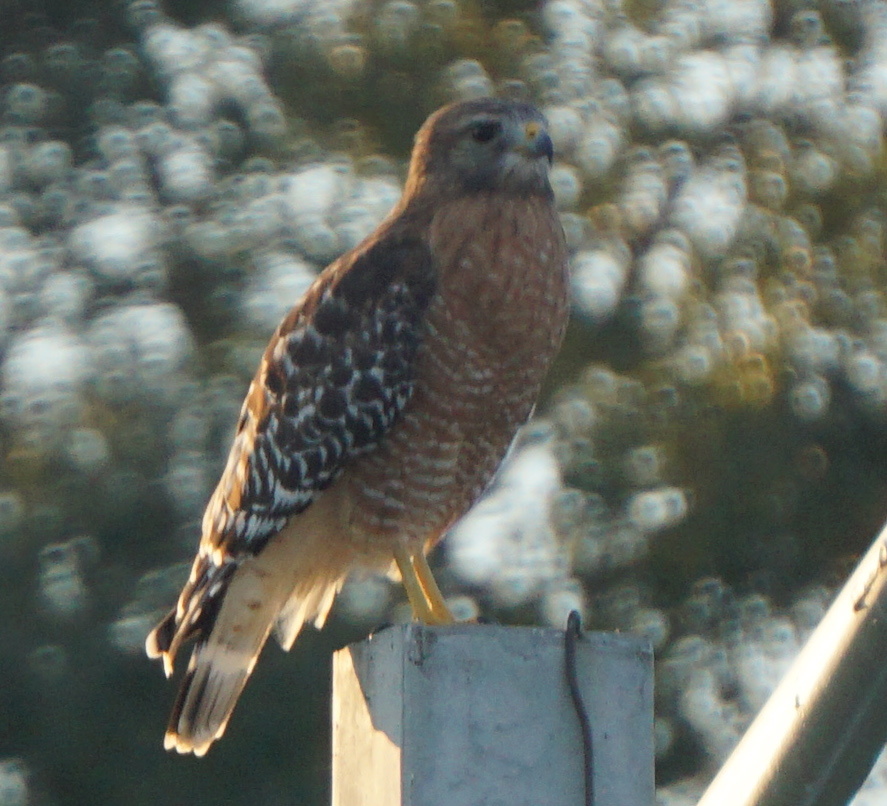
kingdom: Animalia
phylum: Chordata
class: Aves
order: Accipitriformes
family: Accipitridae
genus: Buteo
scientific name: Buteo lineatus
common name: Red-shouldered hawk
